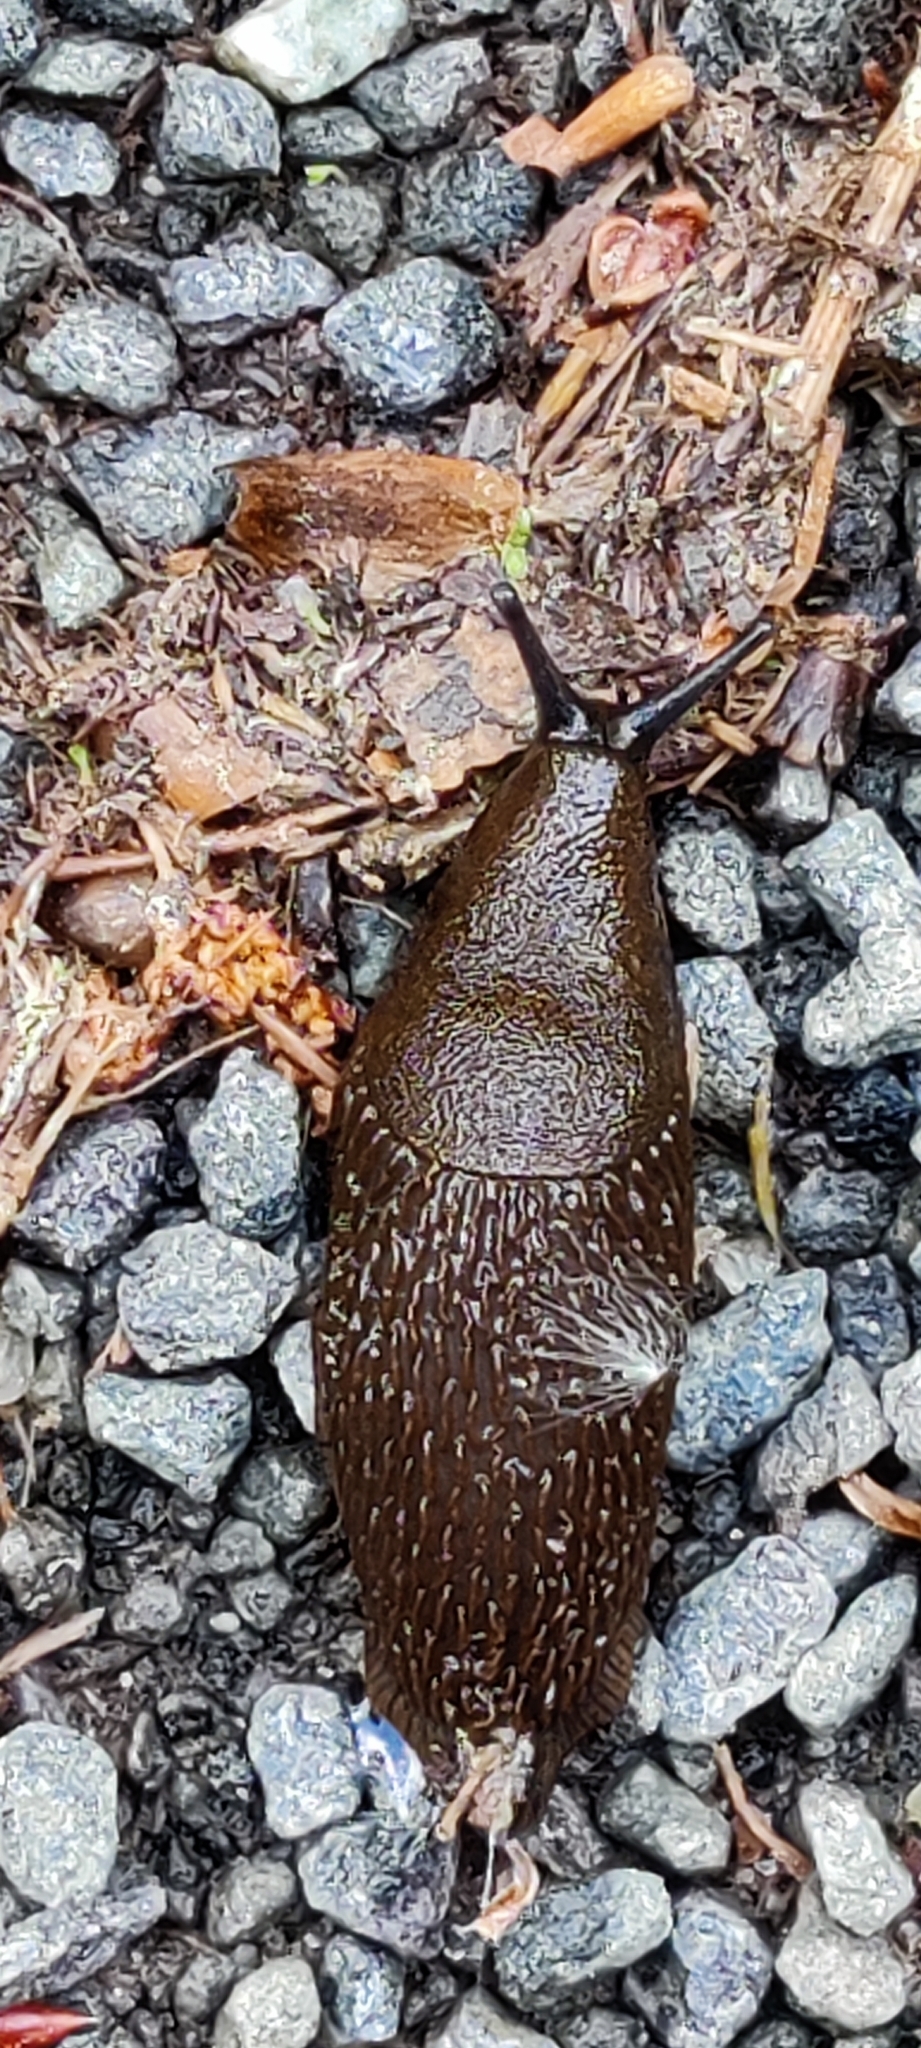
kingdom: Animalia
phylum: Mollusca
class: Gastropoda
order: Stylommatophora
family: Arionidae
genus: Arion
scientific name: Arion vulgaris
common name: Lusitanian slug
